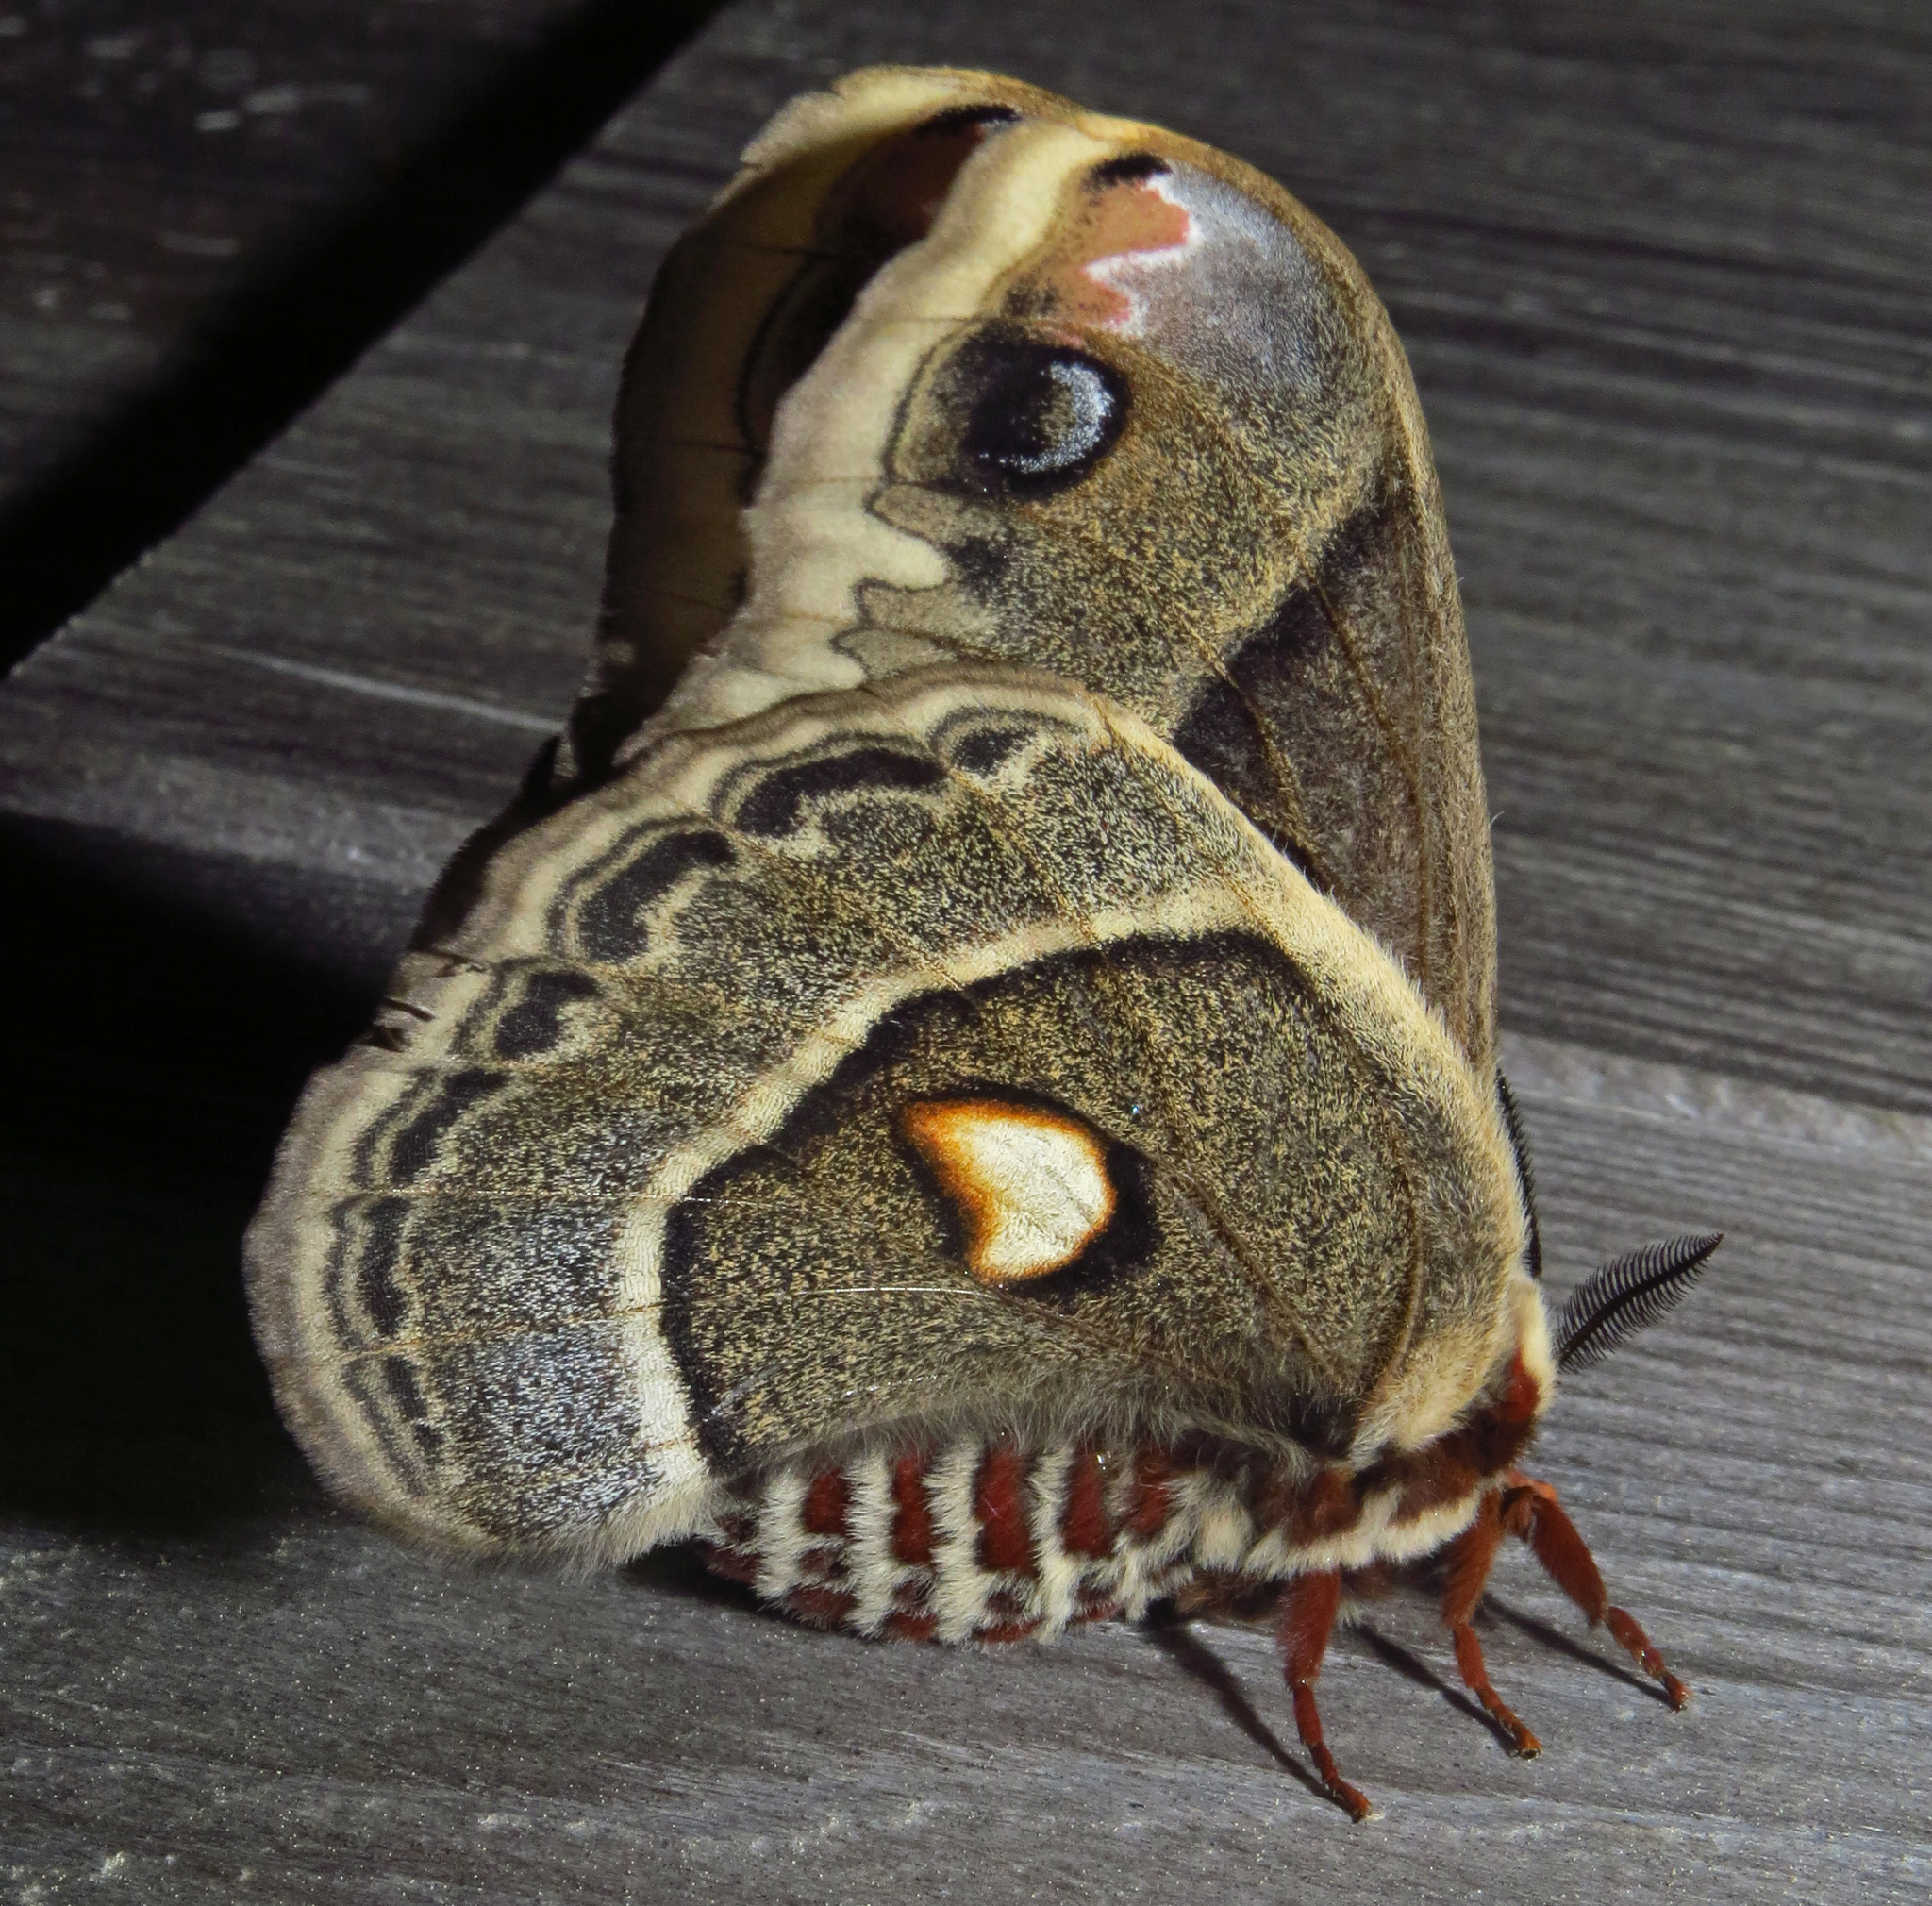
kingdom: Animalia
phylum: Arthropoda
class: Insecta
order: Lepidoptera
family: Saturniidae
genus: Hyalophora
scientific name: Hyalophora columbia
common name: Columbia silkmoth
